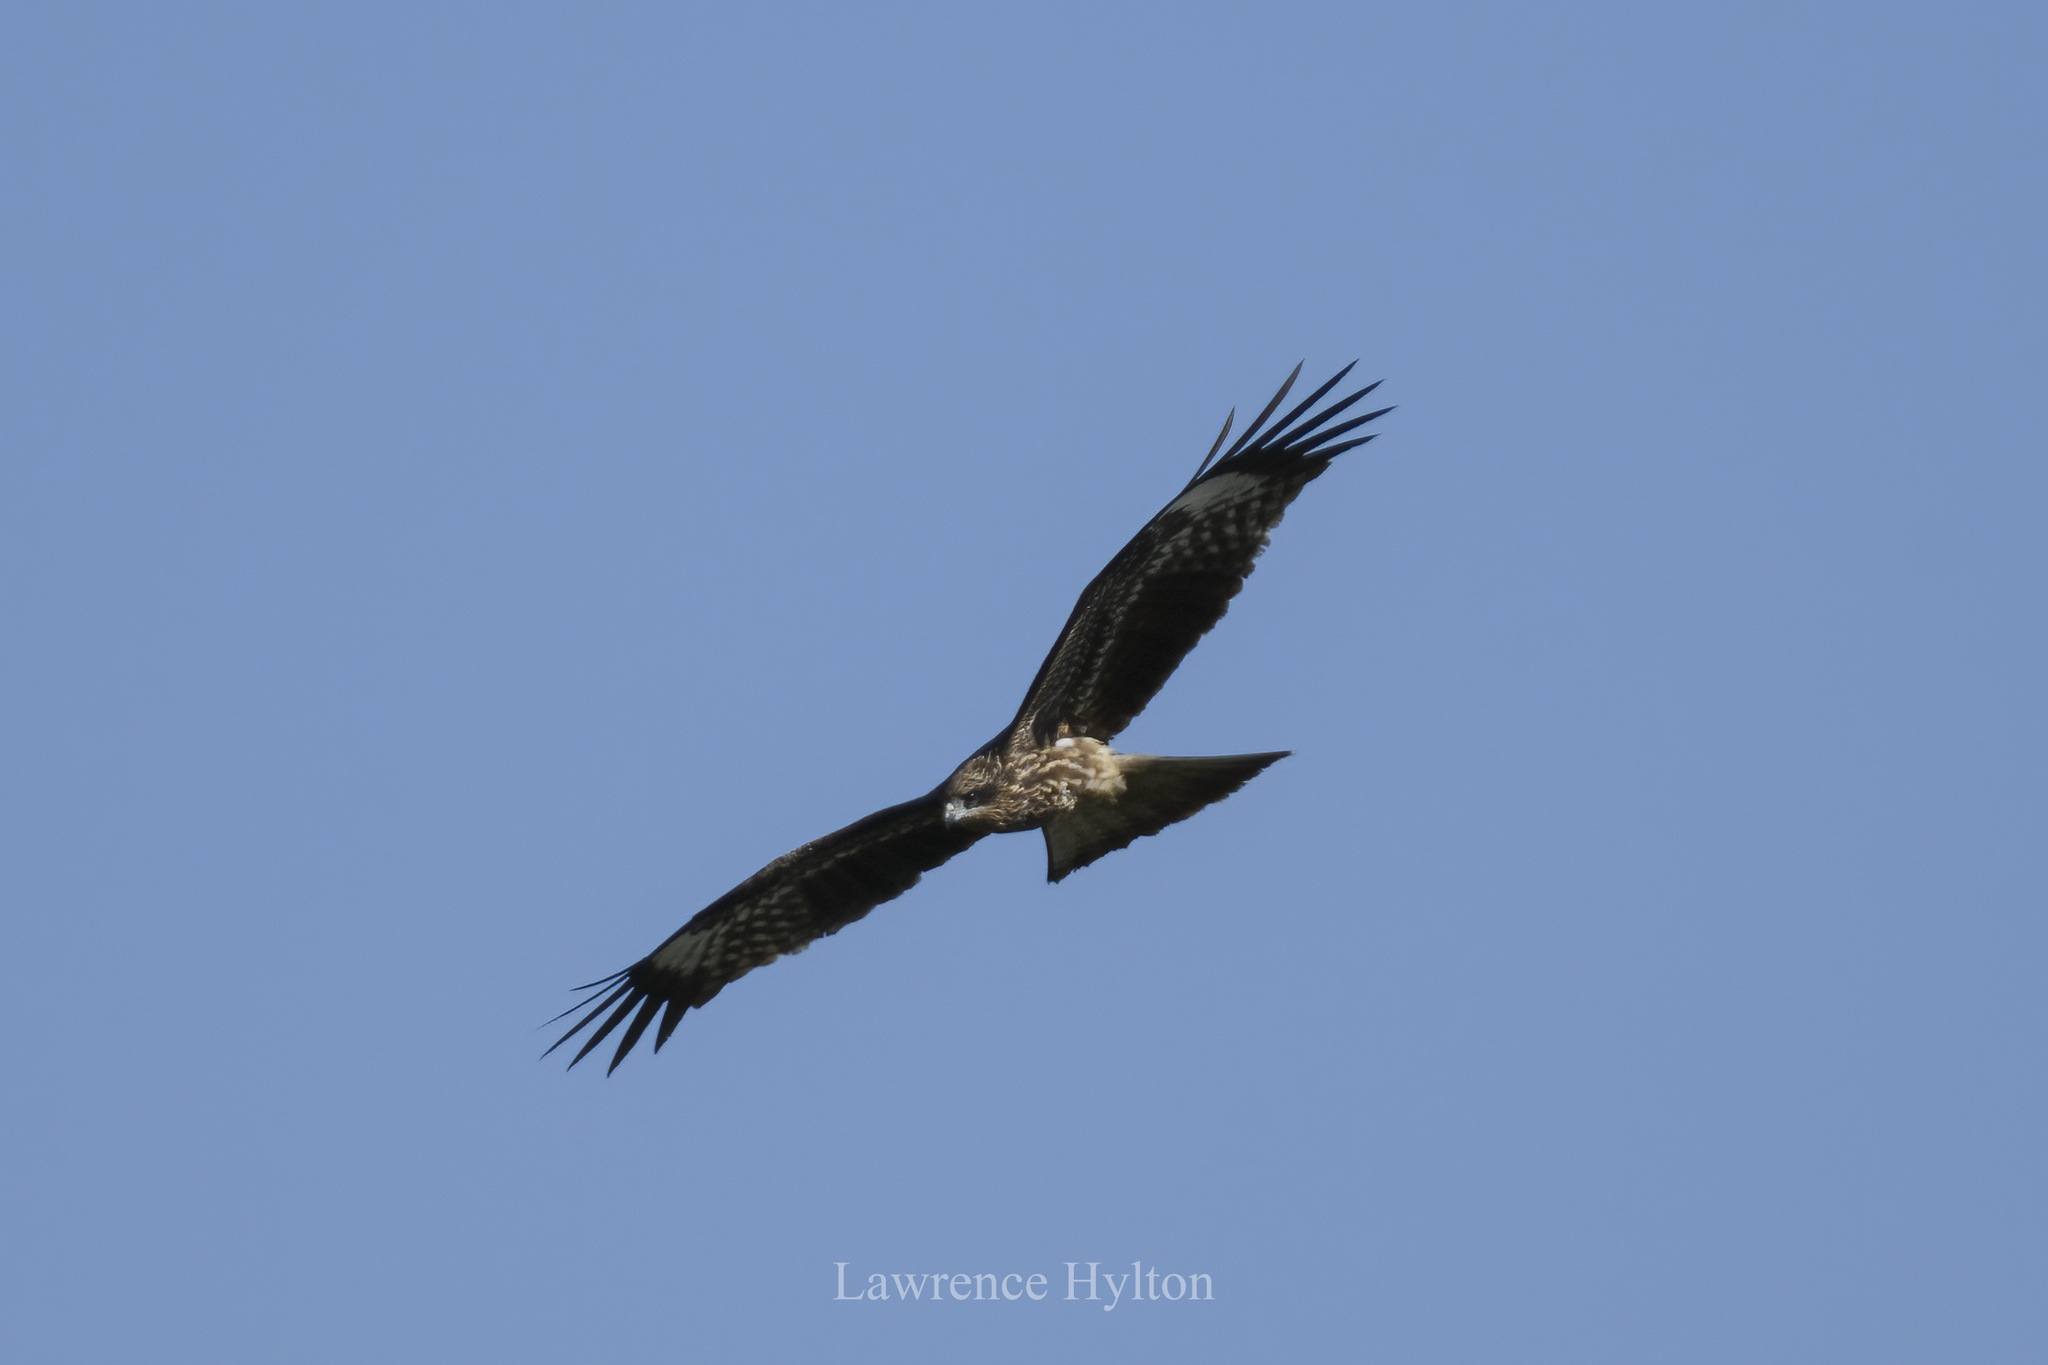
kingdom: Animalia
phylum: Chordata
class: Aves
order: Accipitriformes
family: Accipitridae
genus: Milvus
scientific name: Milvus migrans
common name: Black kite
